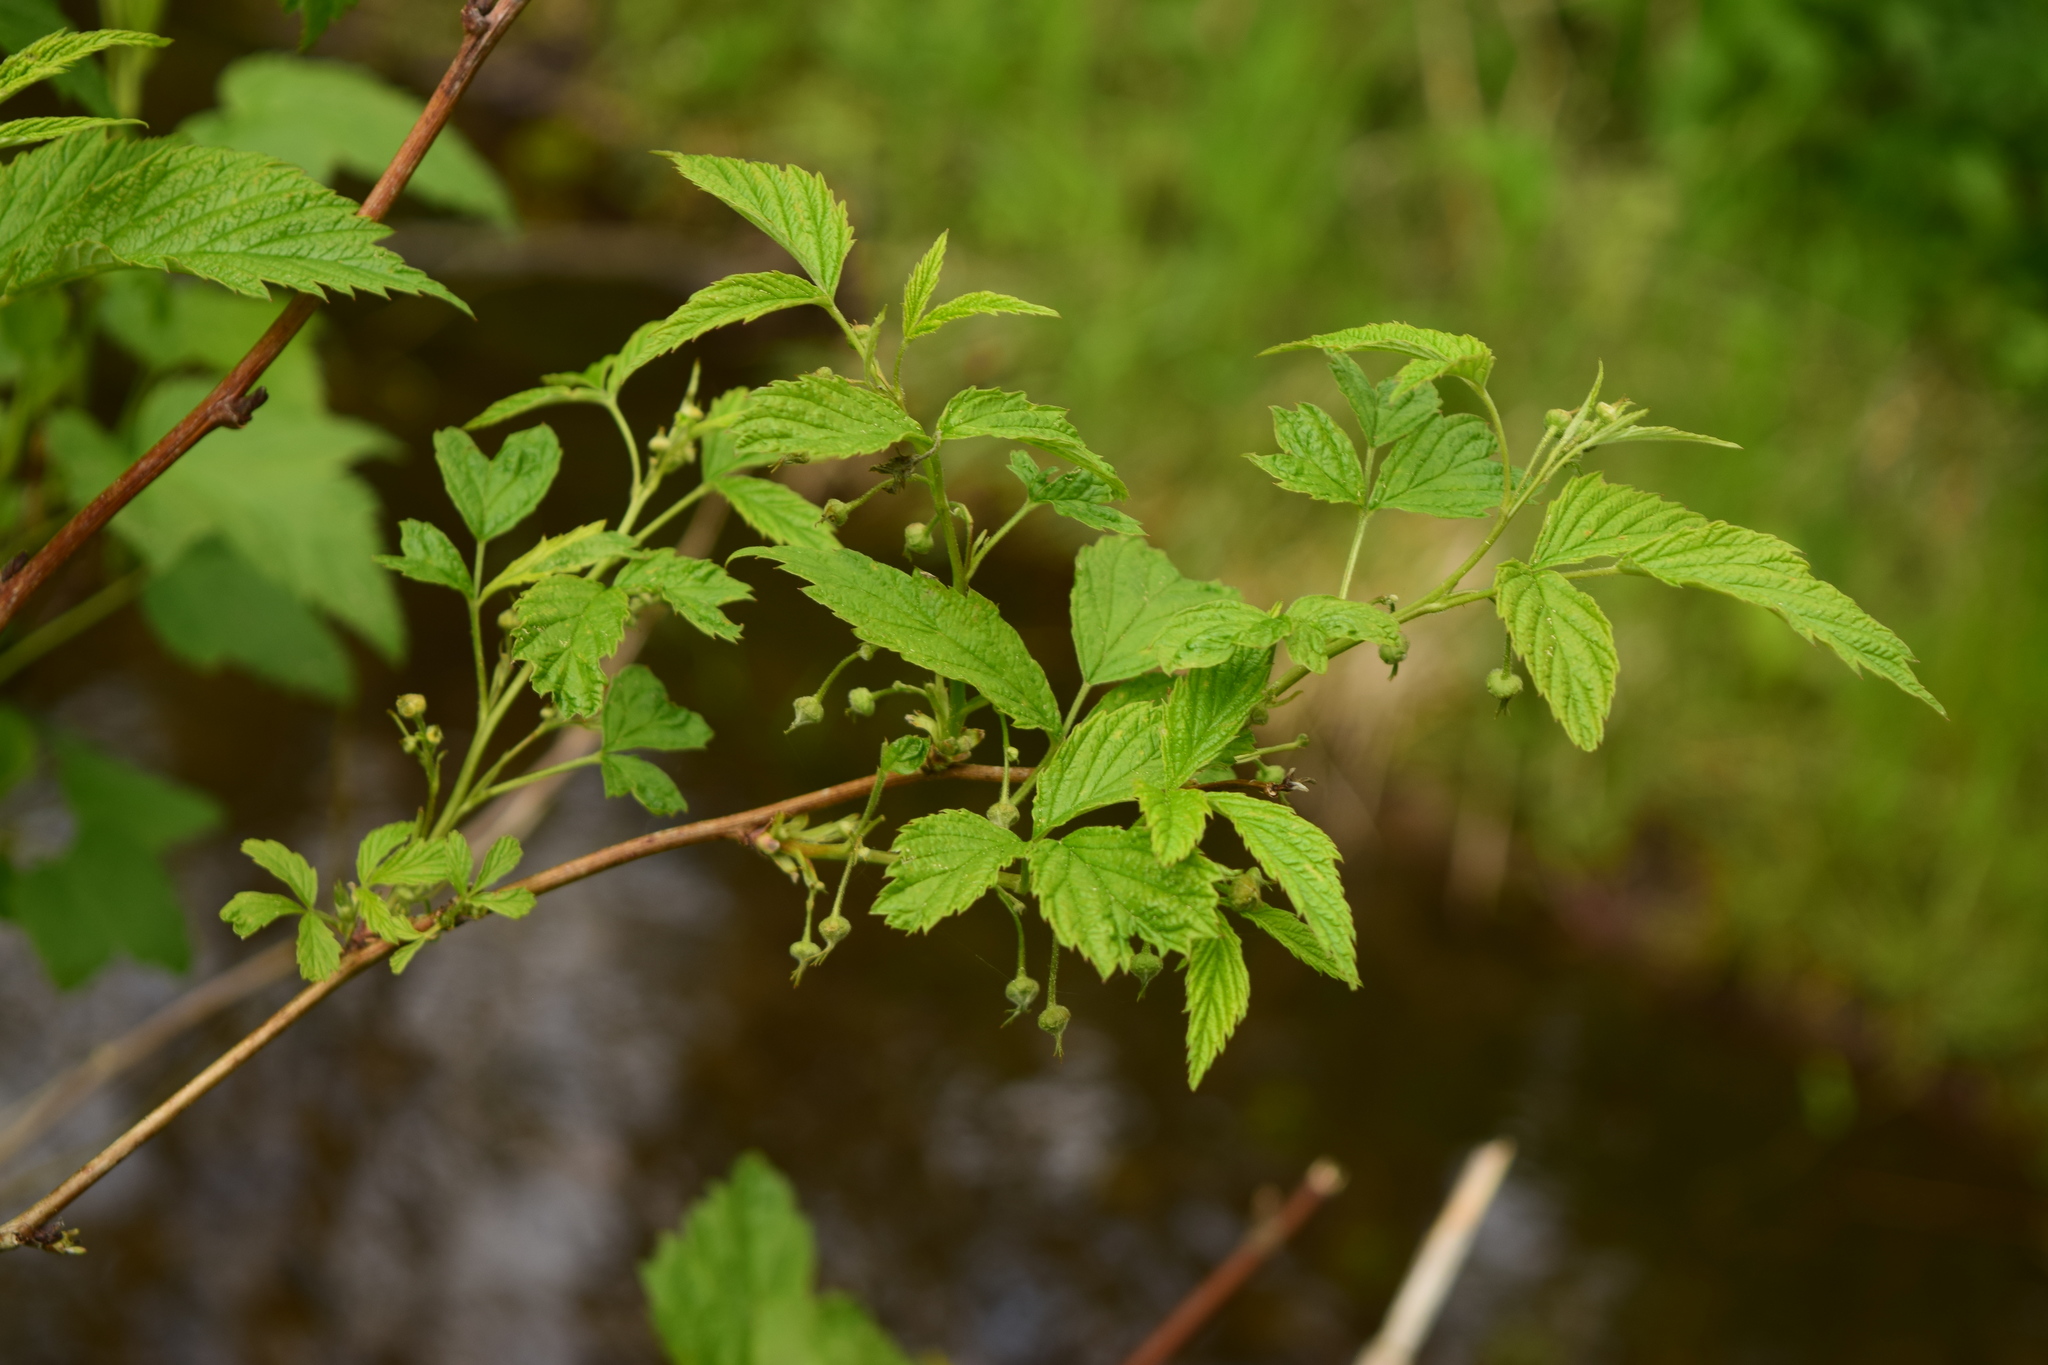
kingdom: Plantae
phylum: Tracheophyta
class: Magnoliopsida
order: Rosales
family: Rosaceae
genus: Rubus
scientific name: Rubus idaeus
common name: Raspberry
